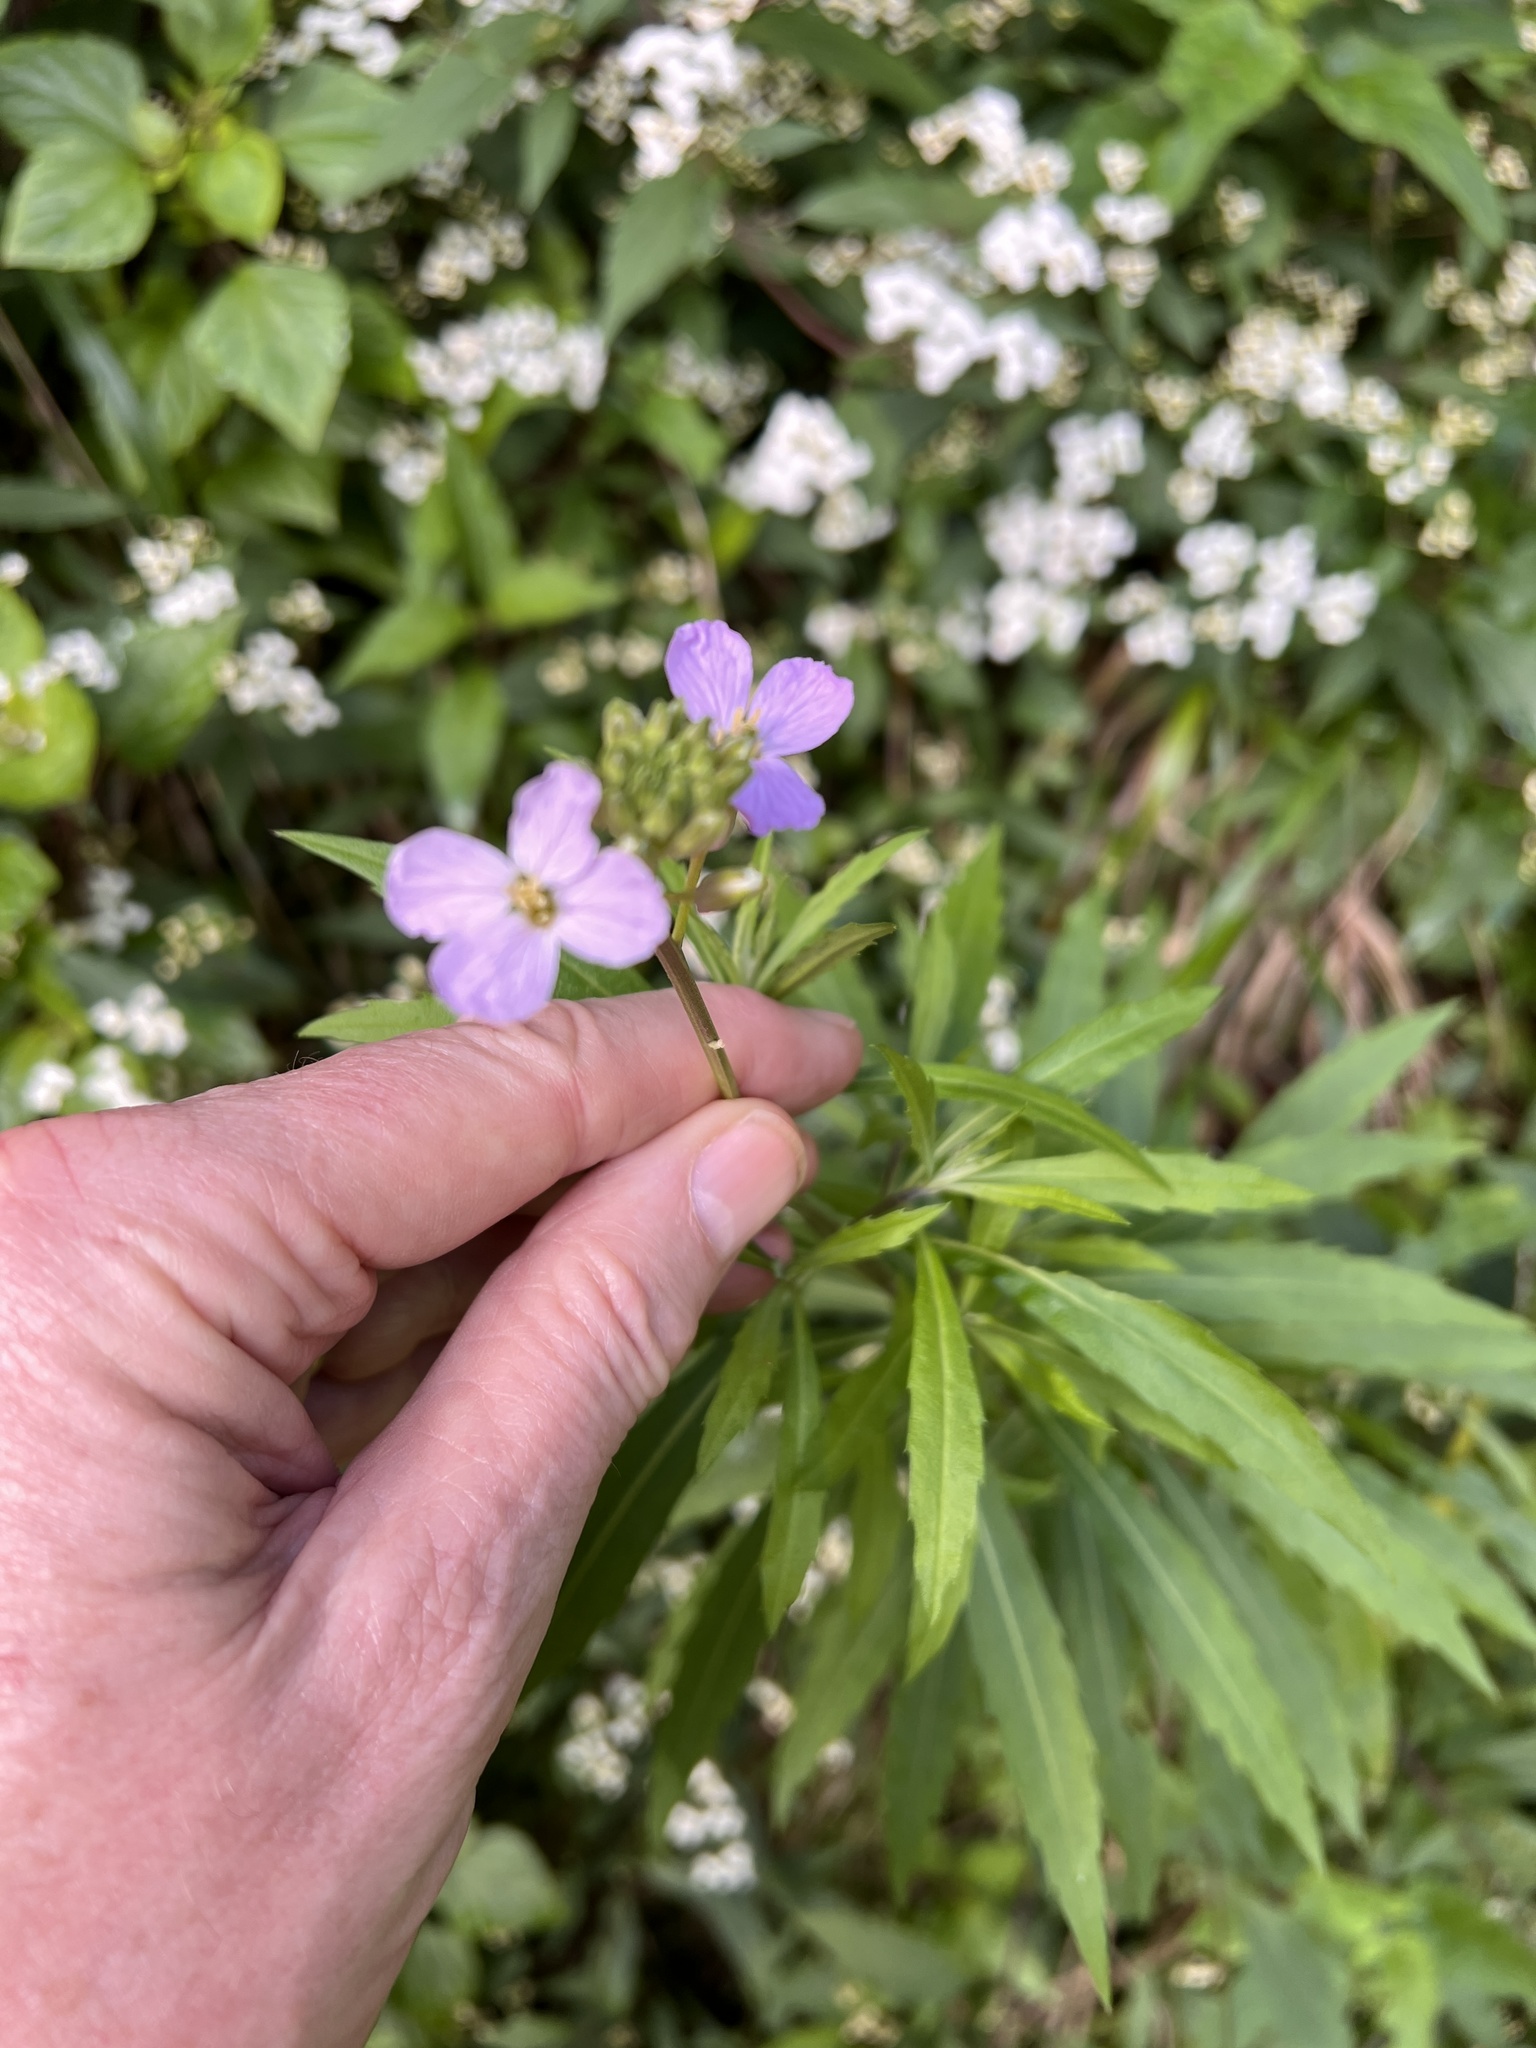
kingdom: Plantae
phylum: Tracheophyta
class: Magnoliopsida
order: Brassicales
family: Brassicaceae
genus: Erysimum
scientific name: Erysimum bicolor
